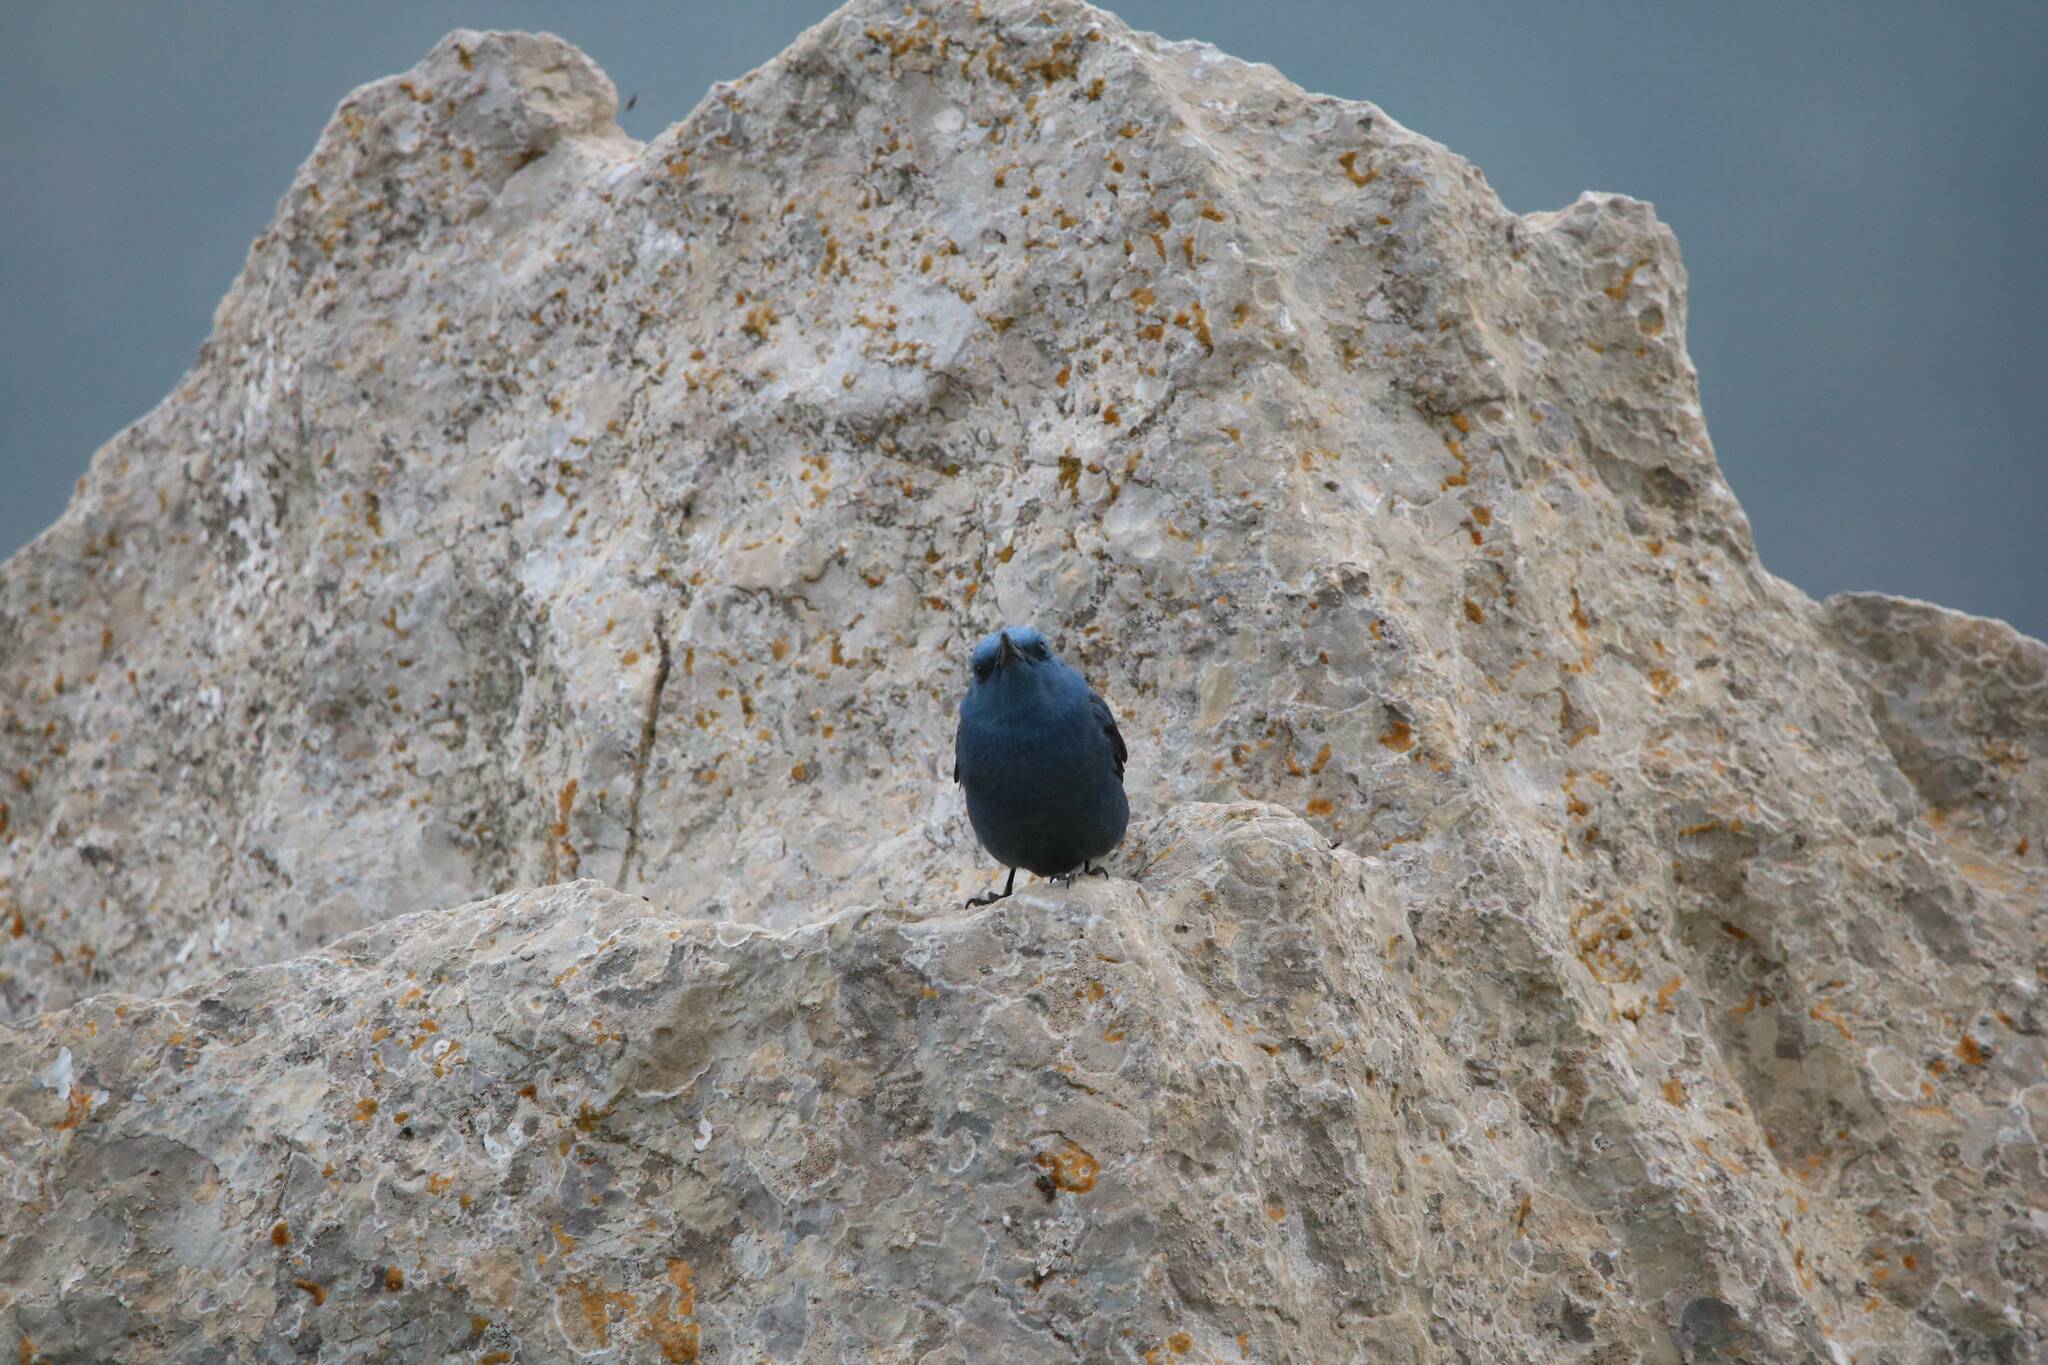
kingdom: Animalia
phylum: Chordata
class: Aves
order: Passeriformes
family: Muscicapidae
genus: Monticola
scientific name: Monticola solitarius
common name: Blue rock thrush
